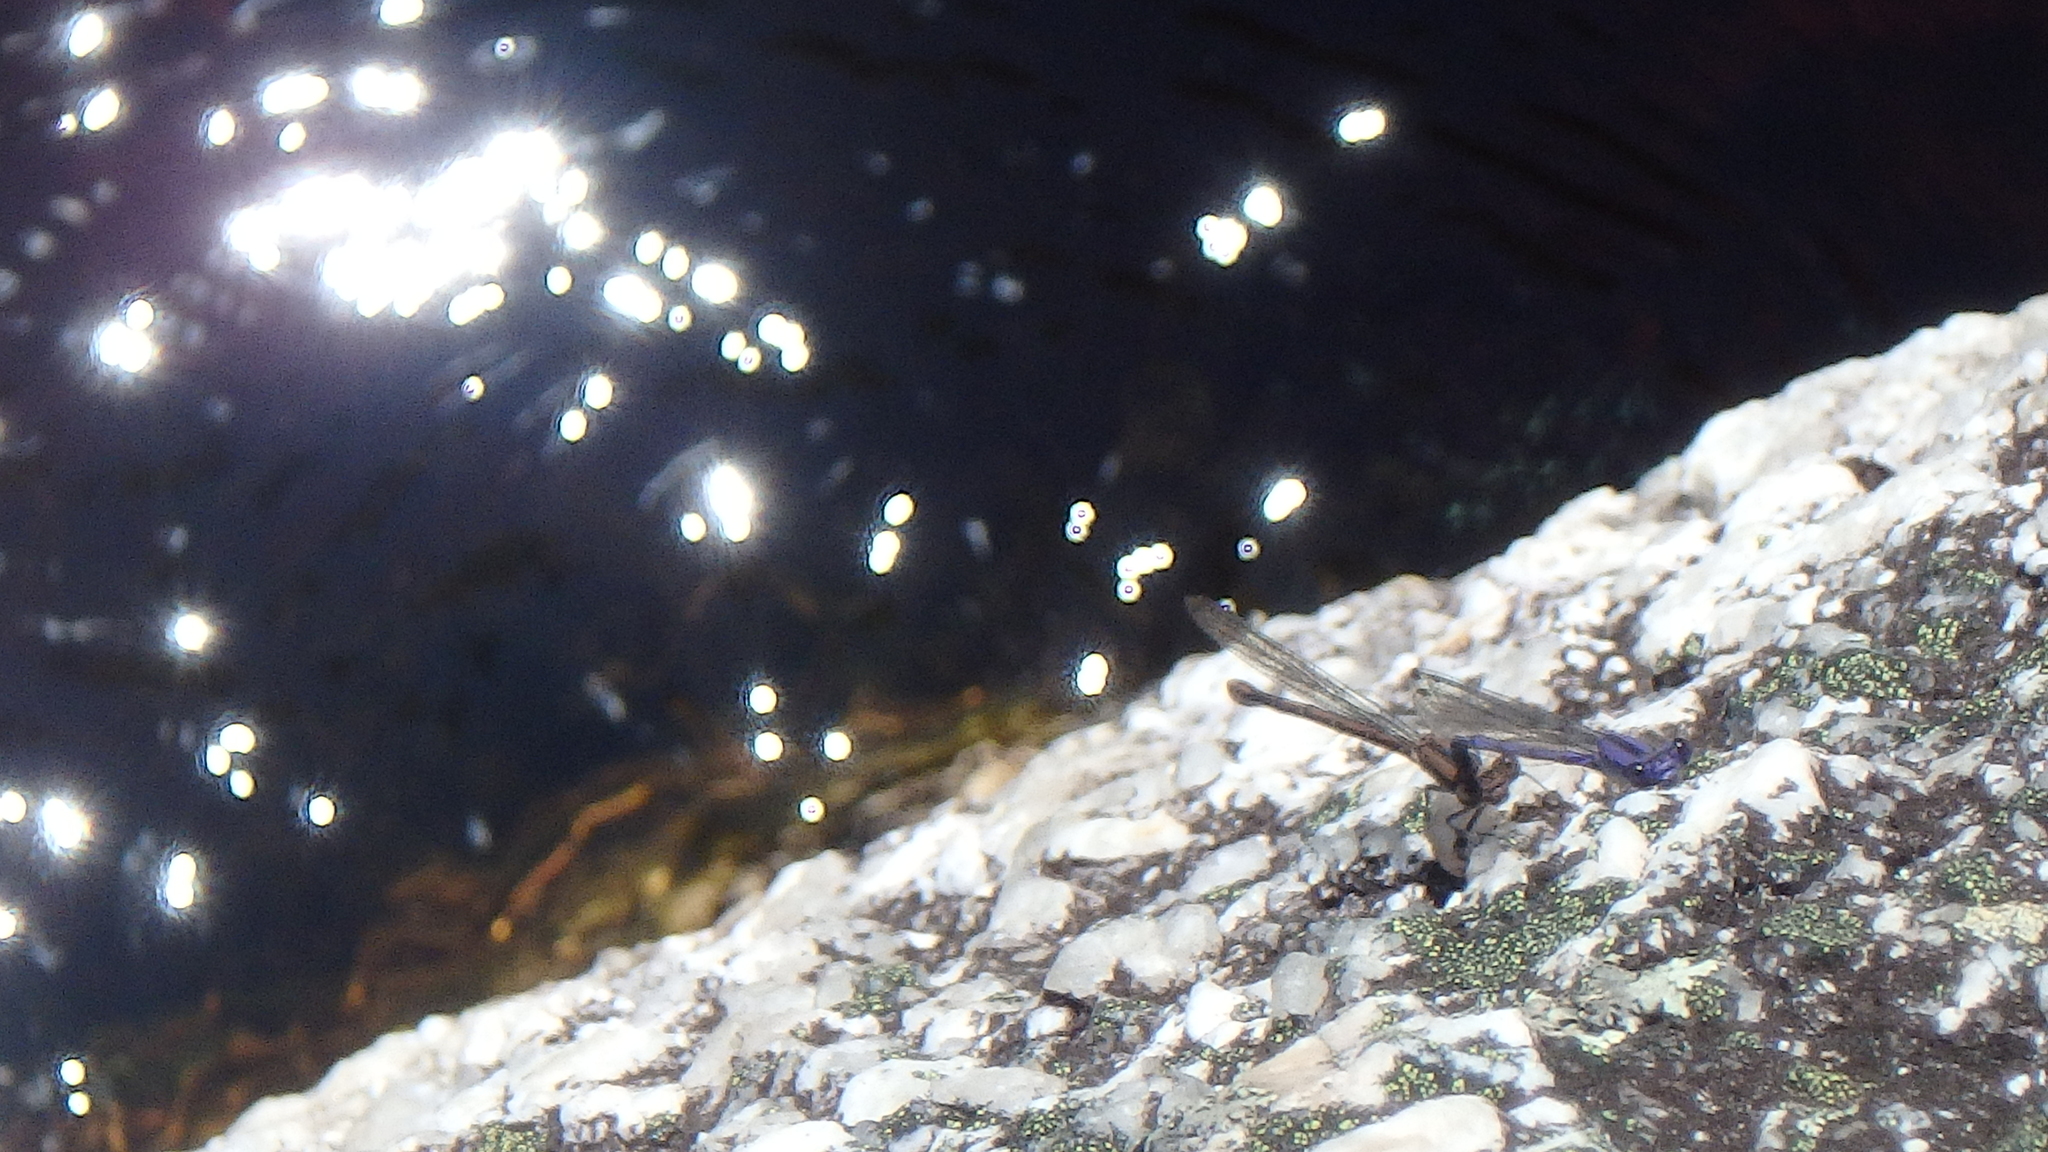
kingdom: Animalia
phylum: Arthropoda
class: Insecta
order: Odonata
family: Coenagrionidae
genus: Argia
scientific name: Argia fumipennis
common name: Variable dancer
